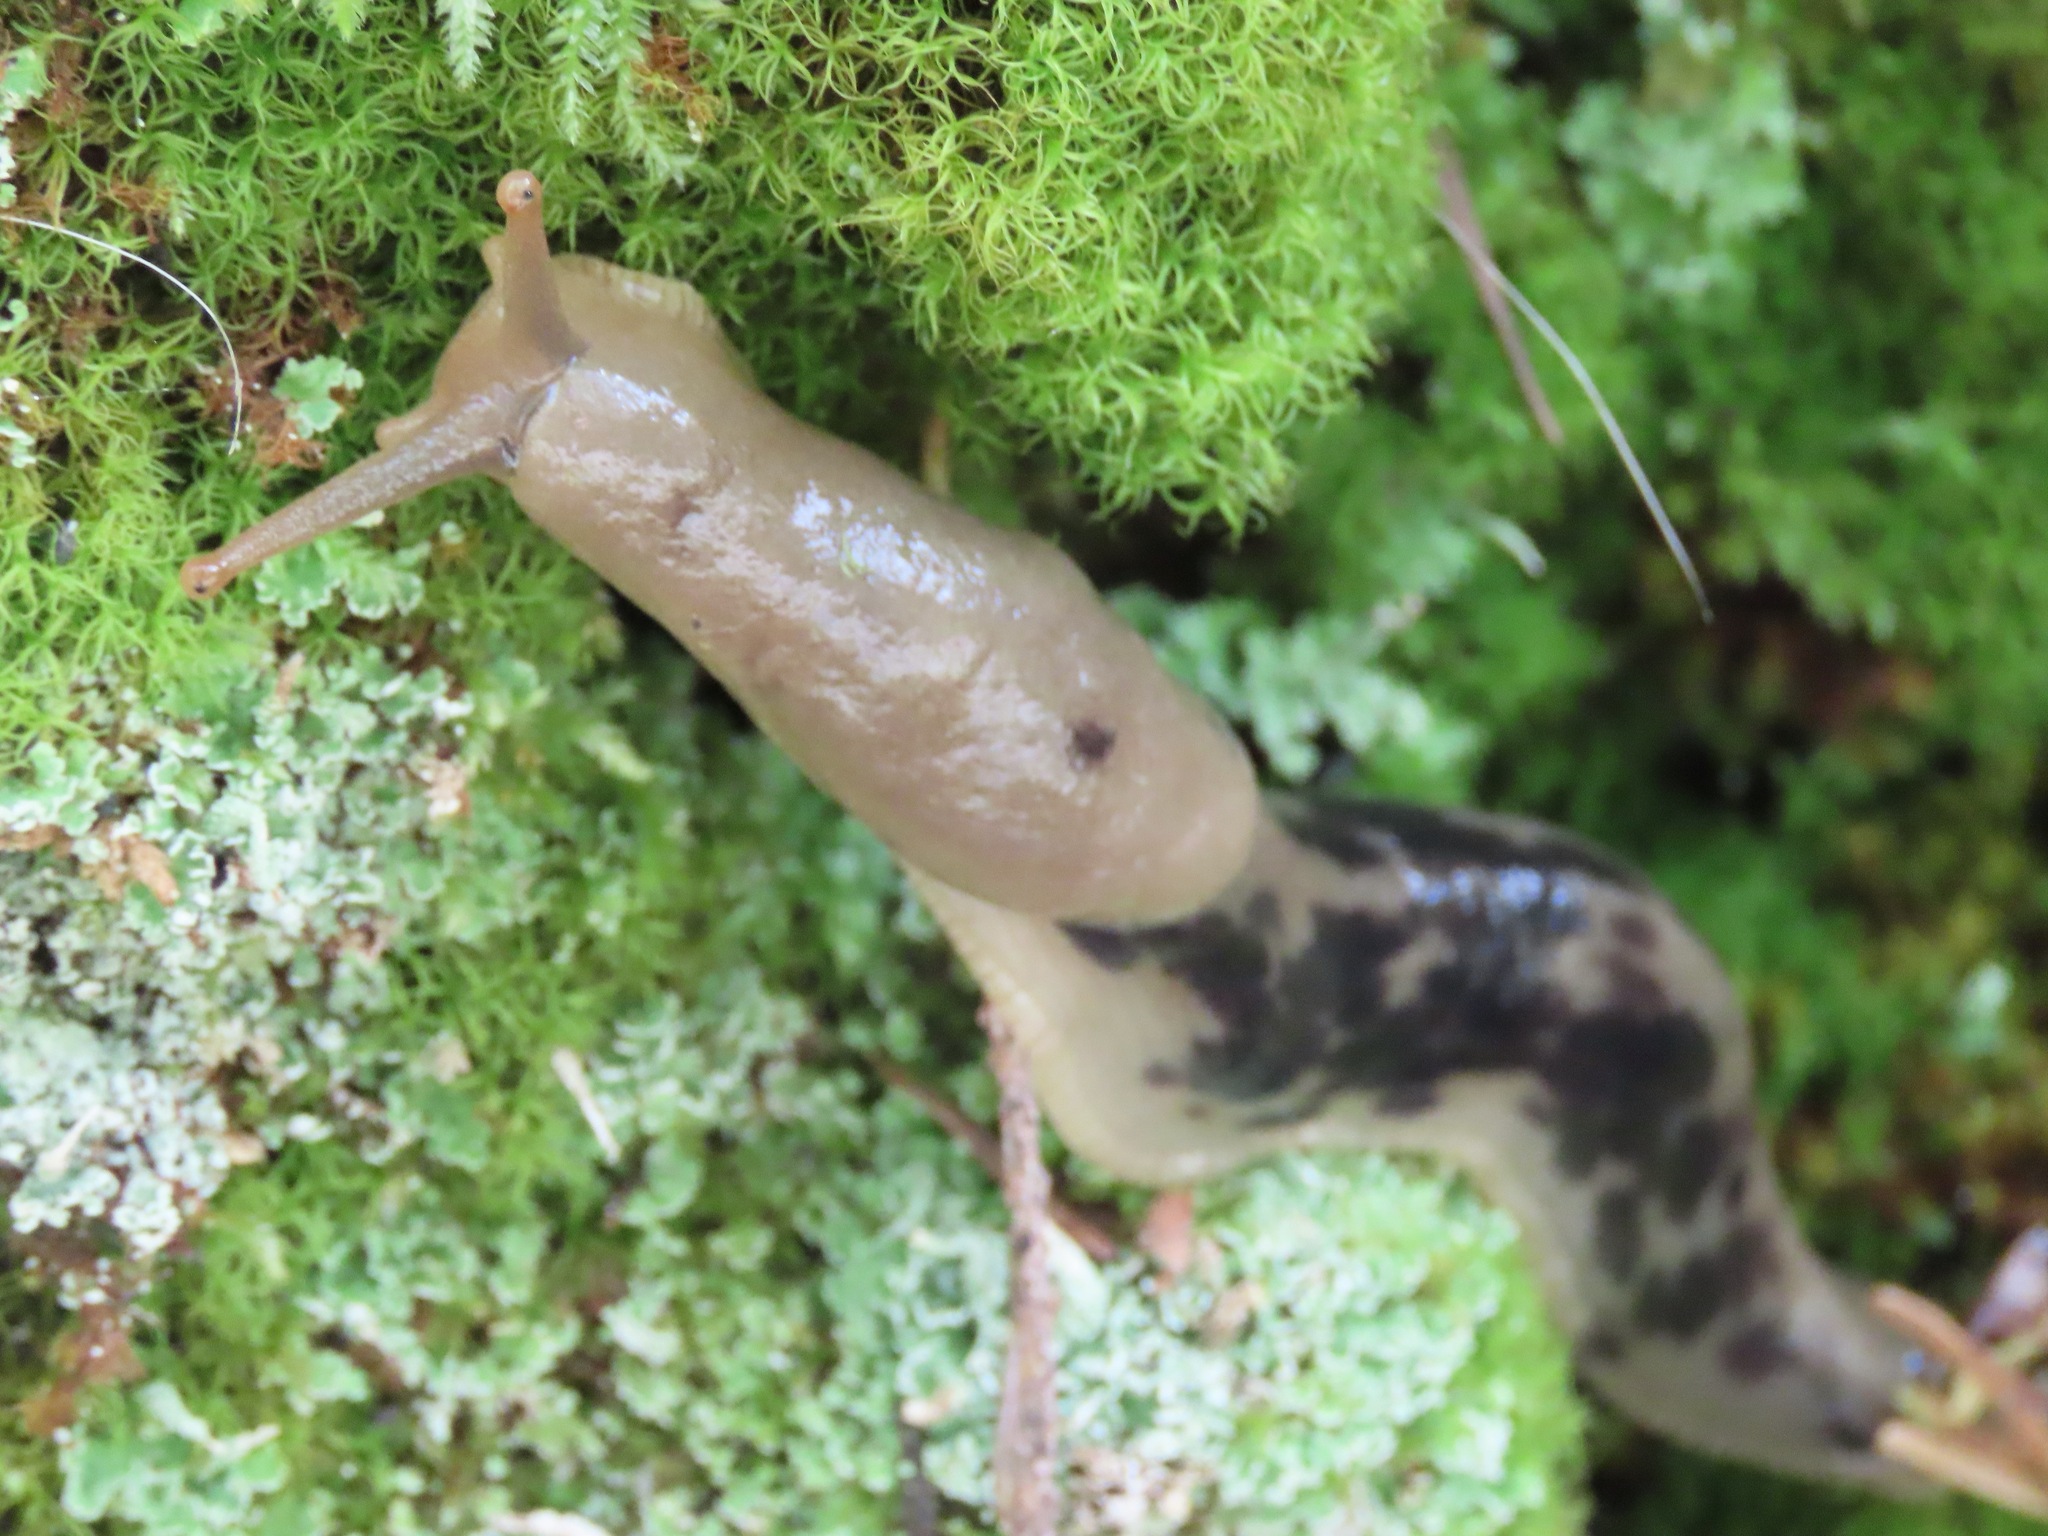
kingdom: Animalia
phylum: Mollusca
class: Gastropoda
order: Stylommatophora
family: Ariolimacidae
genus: Ariolimax
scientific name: Ariolimax columbianus
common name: Pacific banana slug
